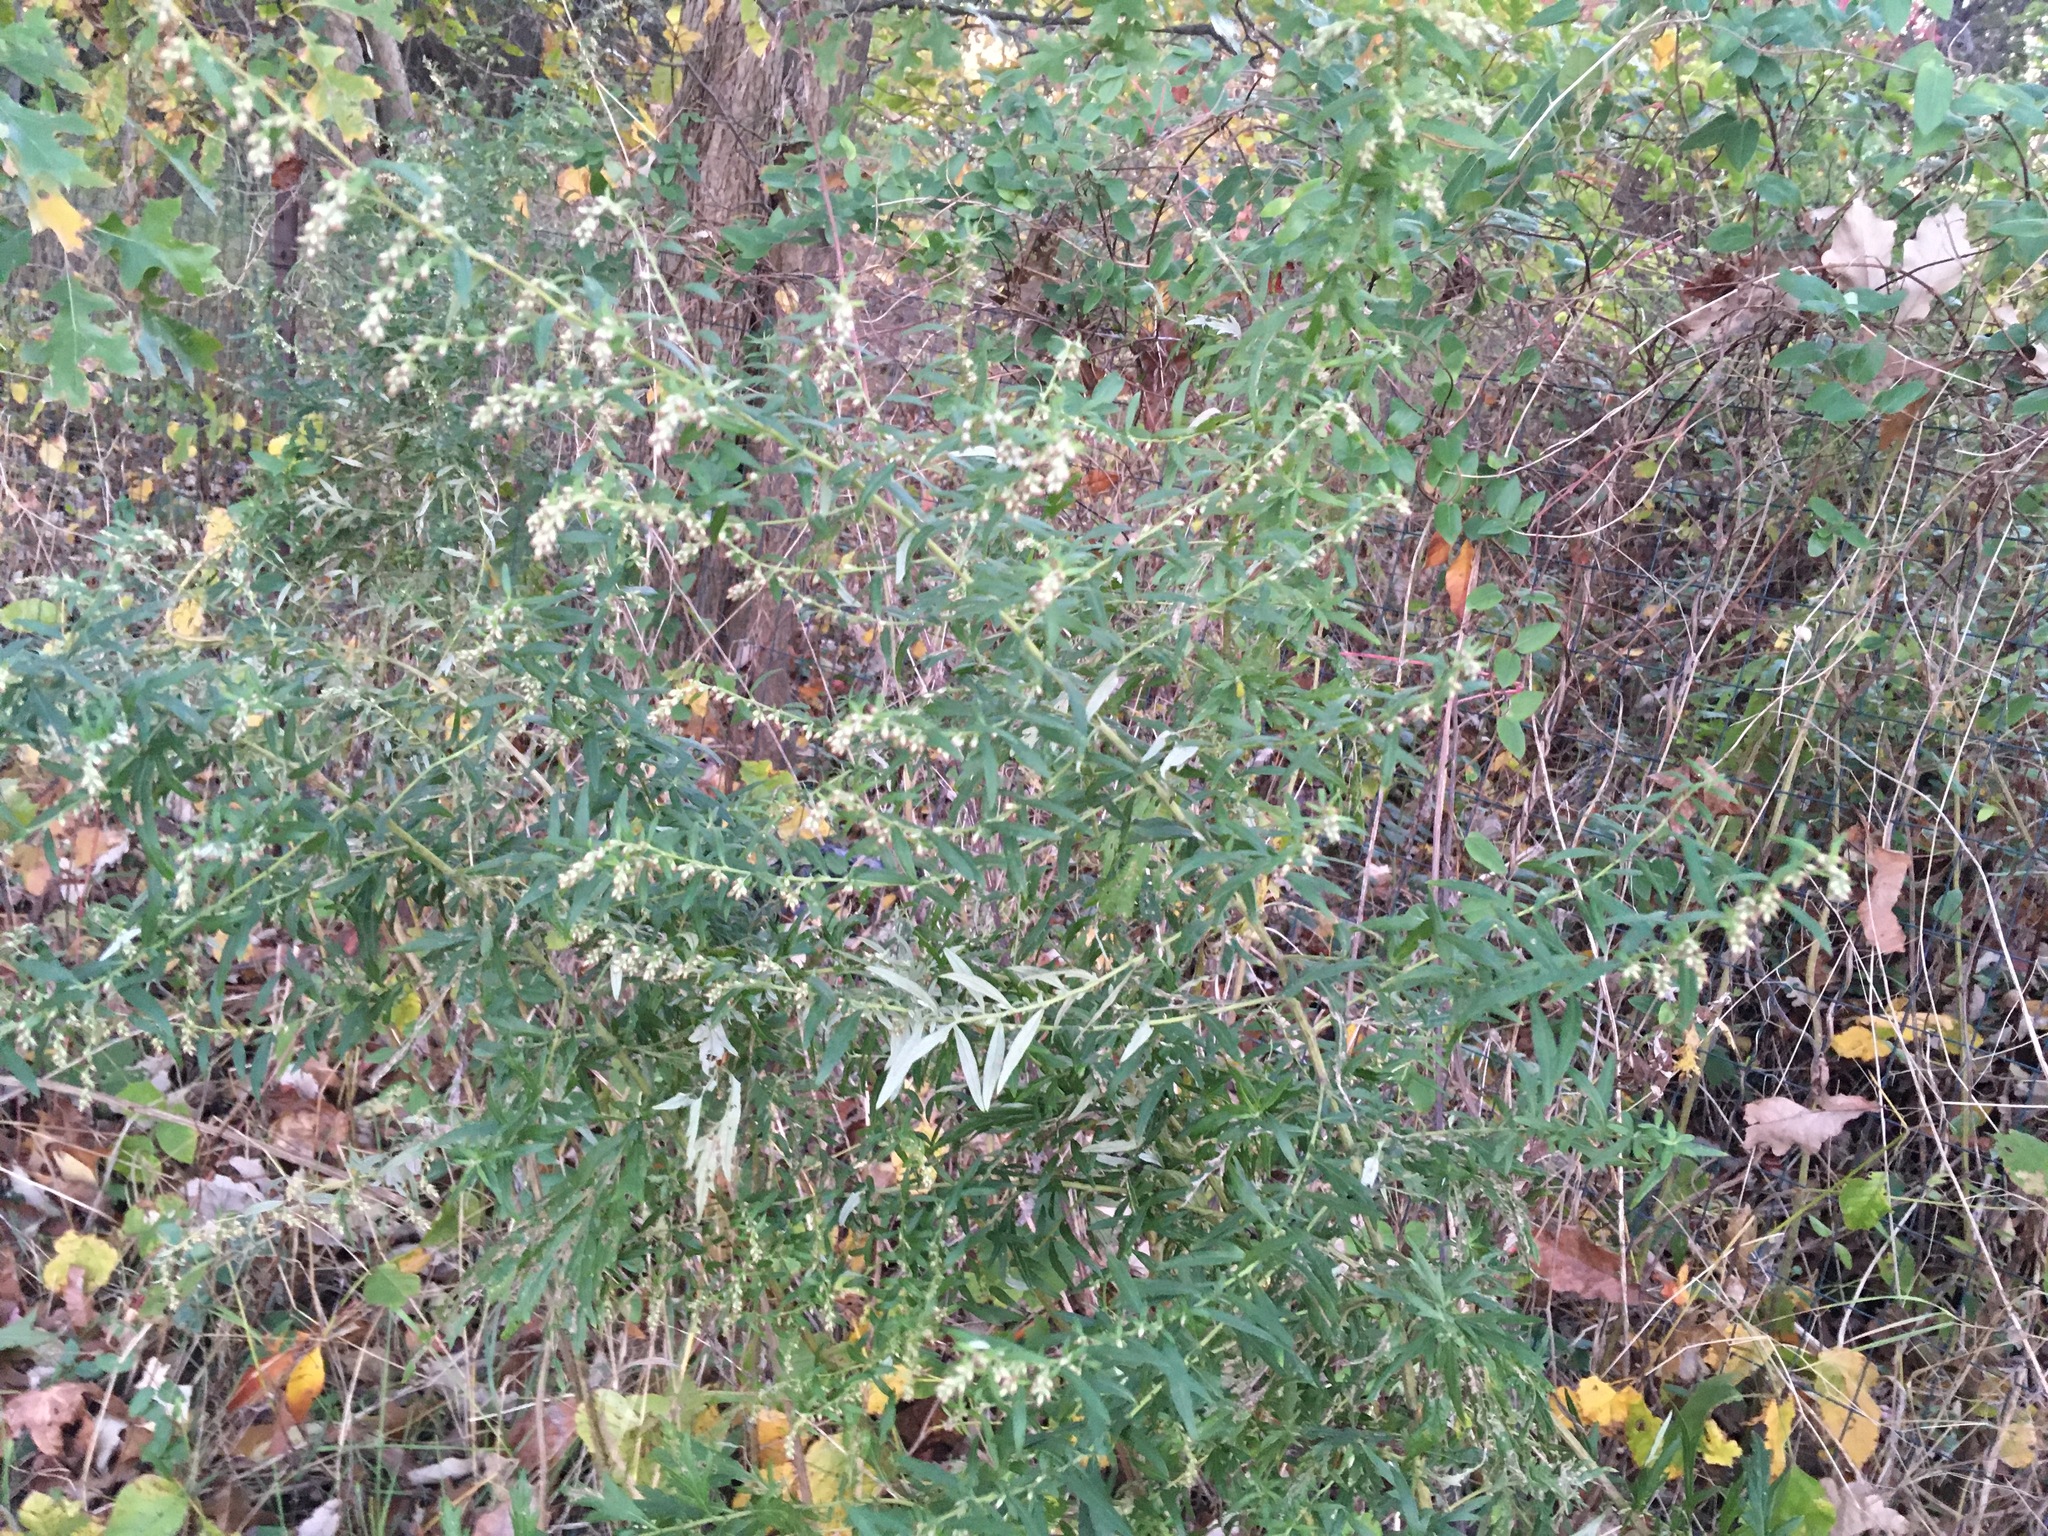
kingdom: Plantae
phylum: Tracheophyta
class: Magnoliopsida
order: Asterales
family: Asteraceae
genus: Artemisia
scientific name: Artemisia vulgaris
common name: Mugwort
